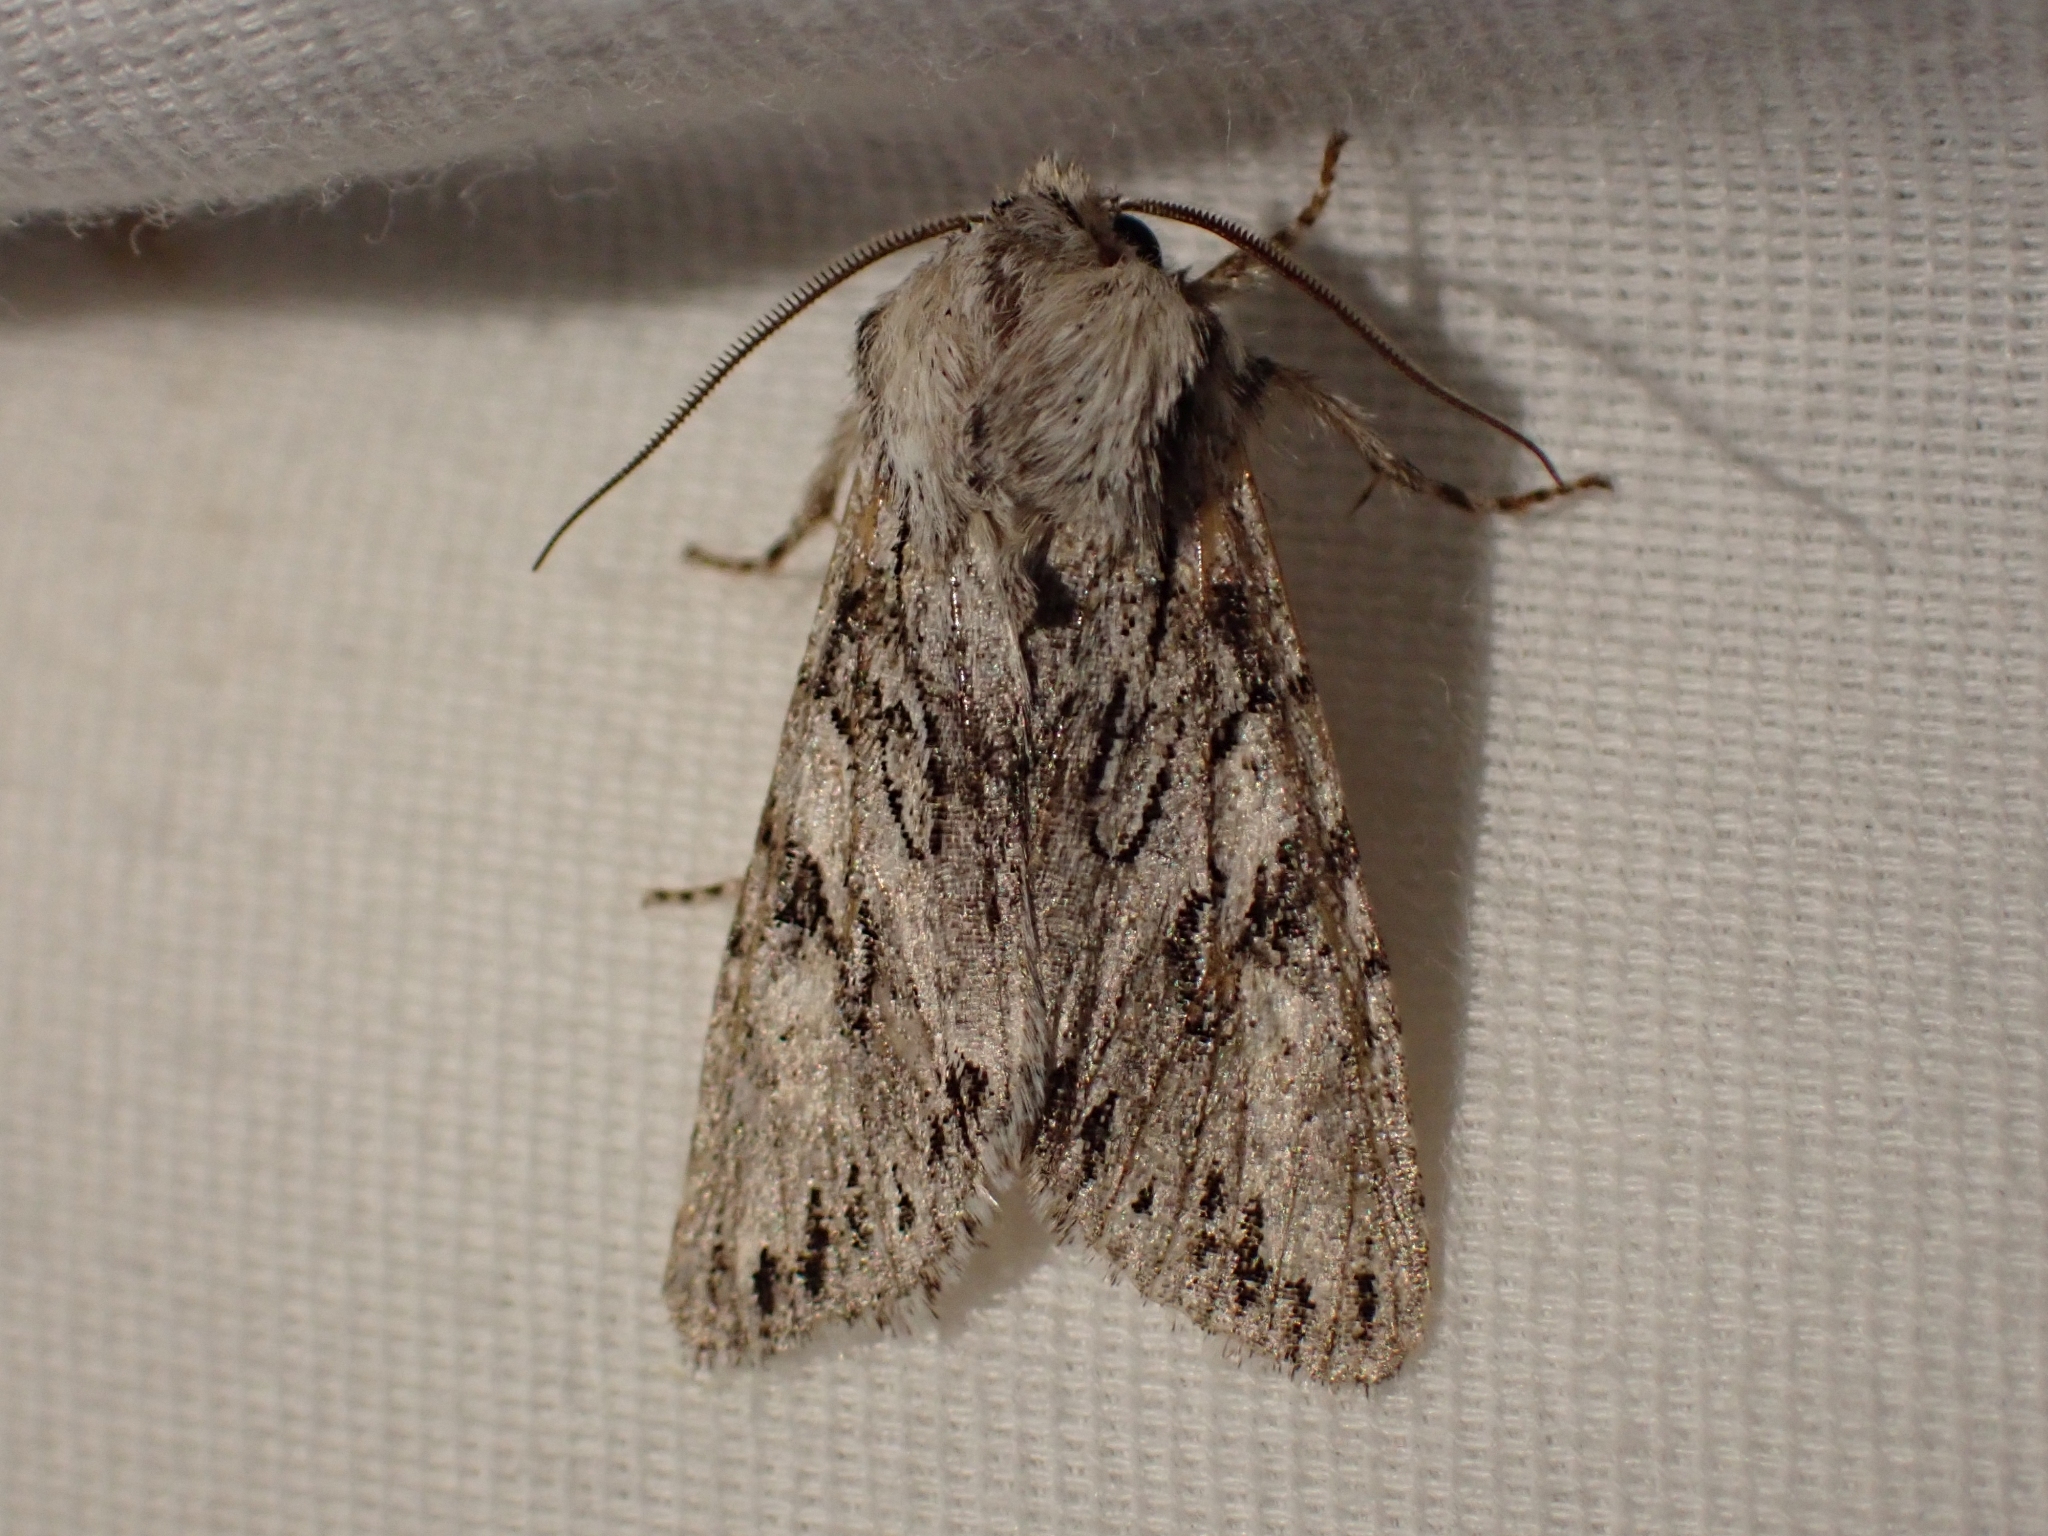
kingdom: Animalia
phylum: Arthropoda
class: Insecta
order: Lepidoptera
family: Noctuidae
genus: Egira
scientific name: Egira simplex
